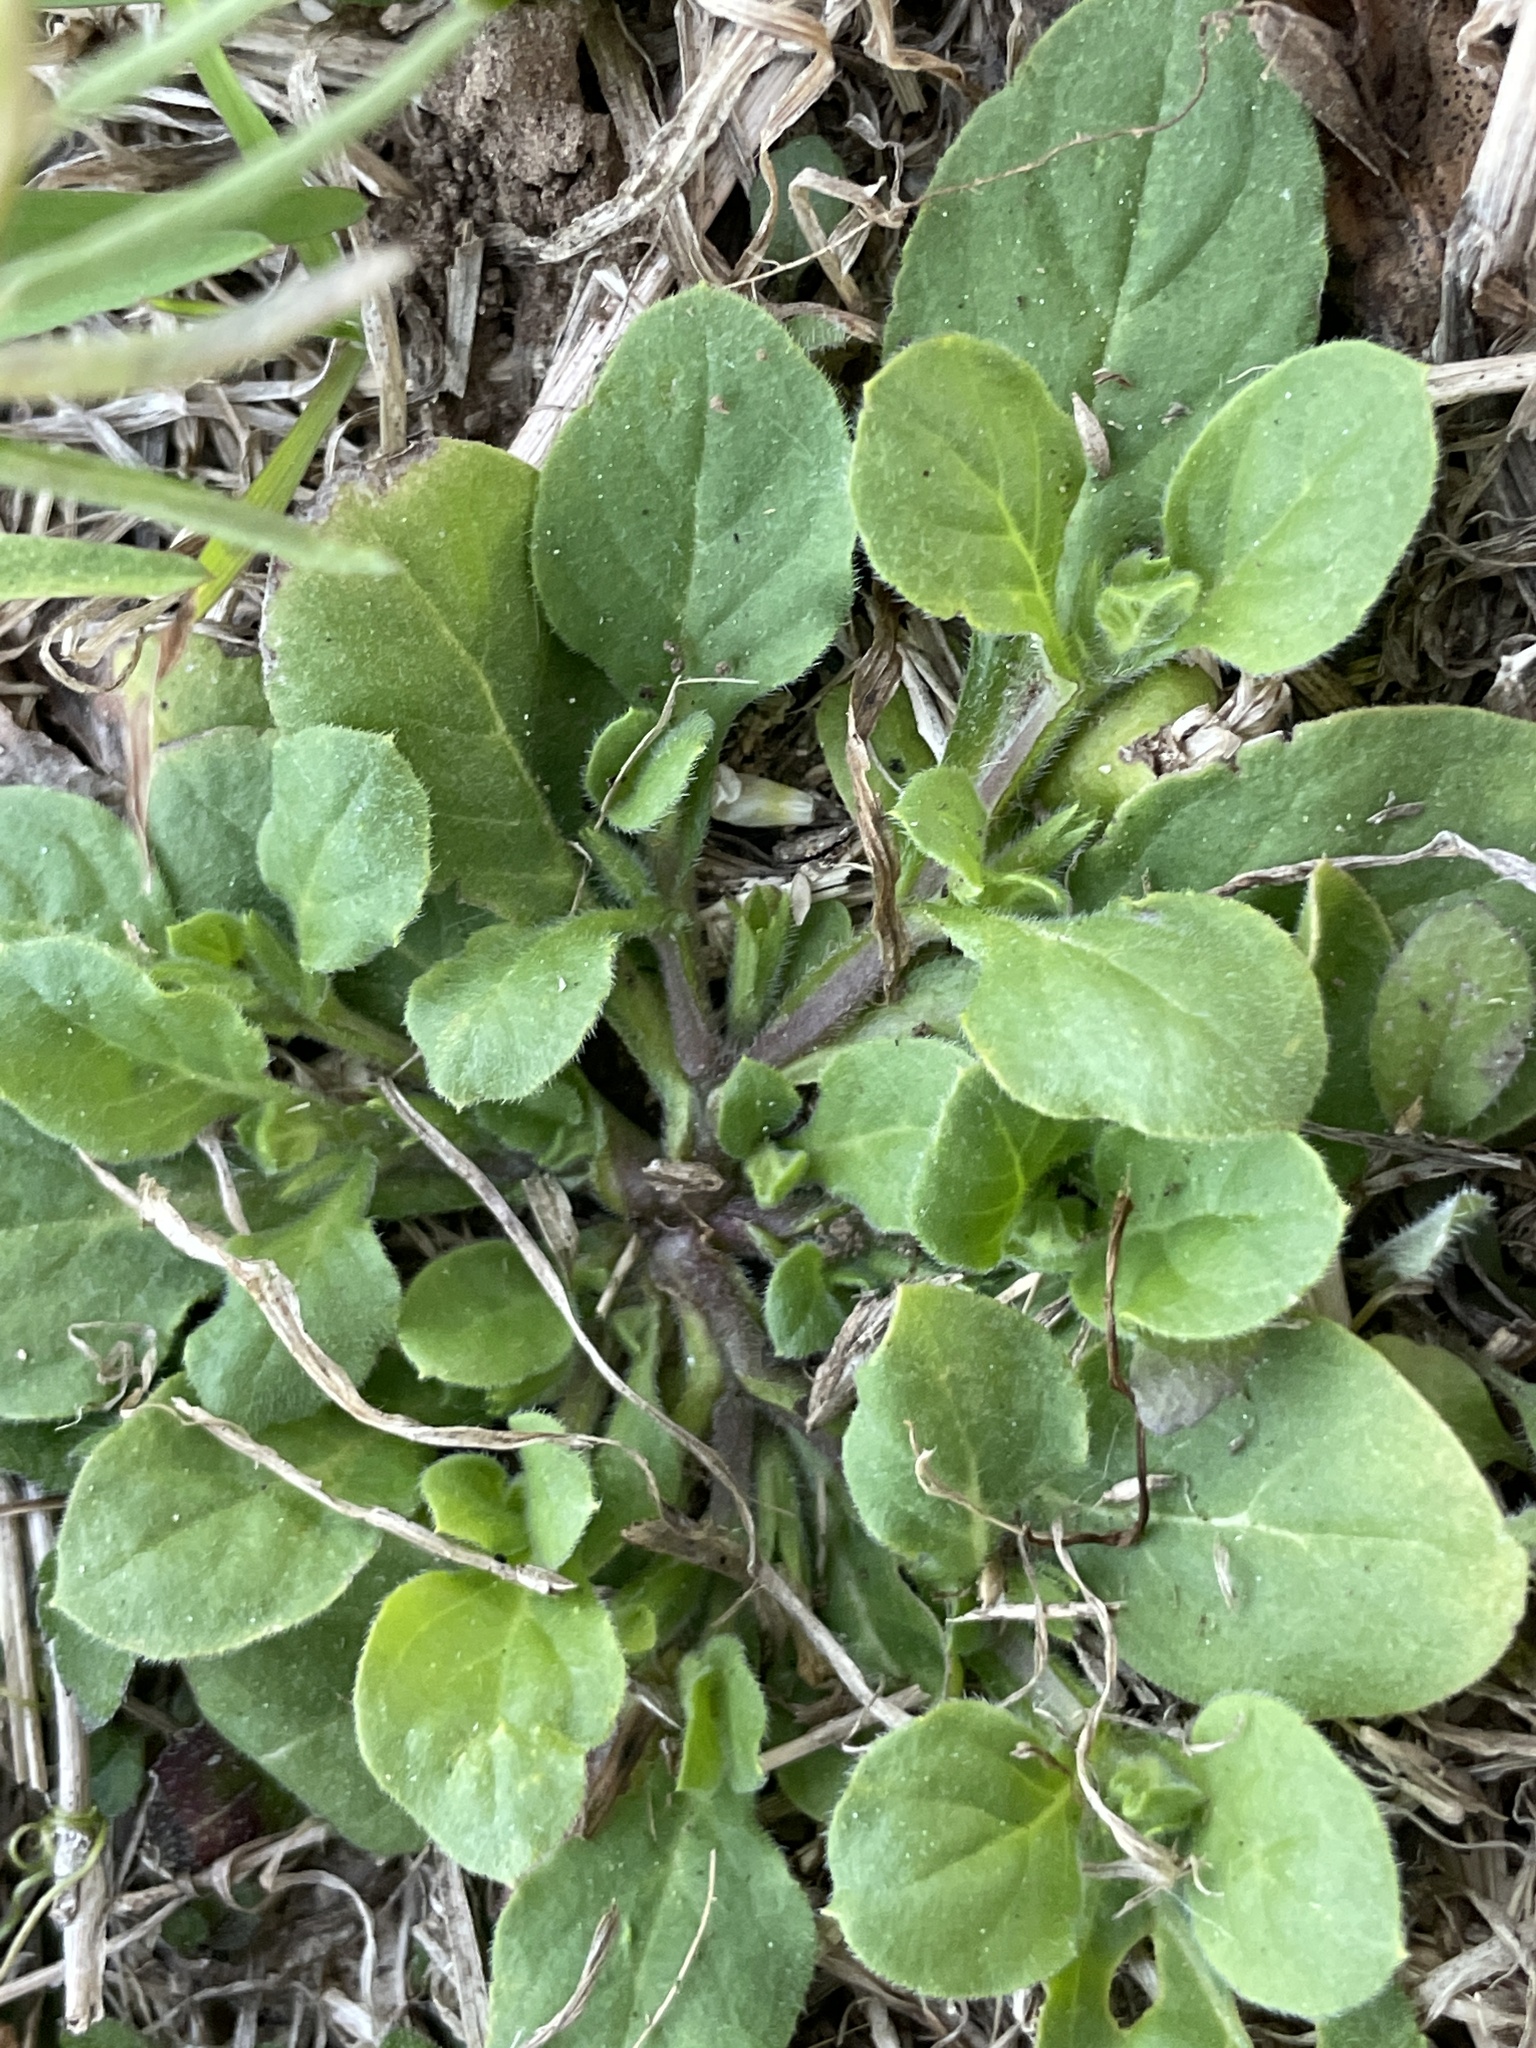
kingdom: Plantae
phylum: Tracheophyta
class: Magnoliopsida
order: Boraginales
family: Namaceae
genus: Nama
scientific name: Nama jamaicensis
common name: Jamaicanweed
